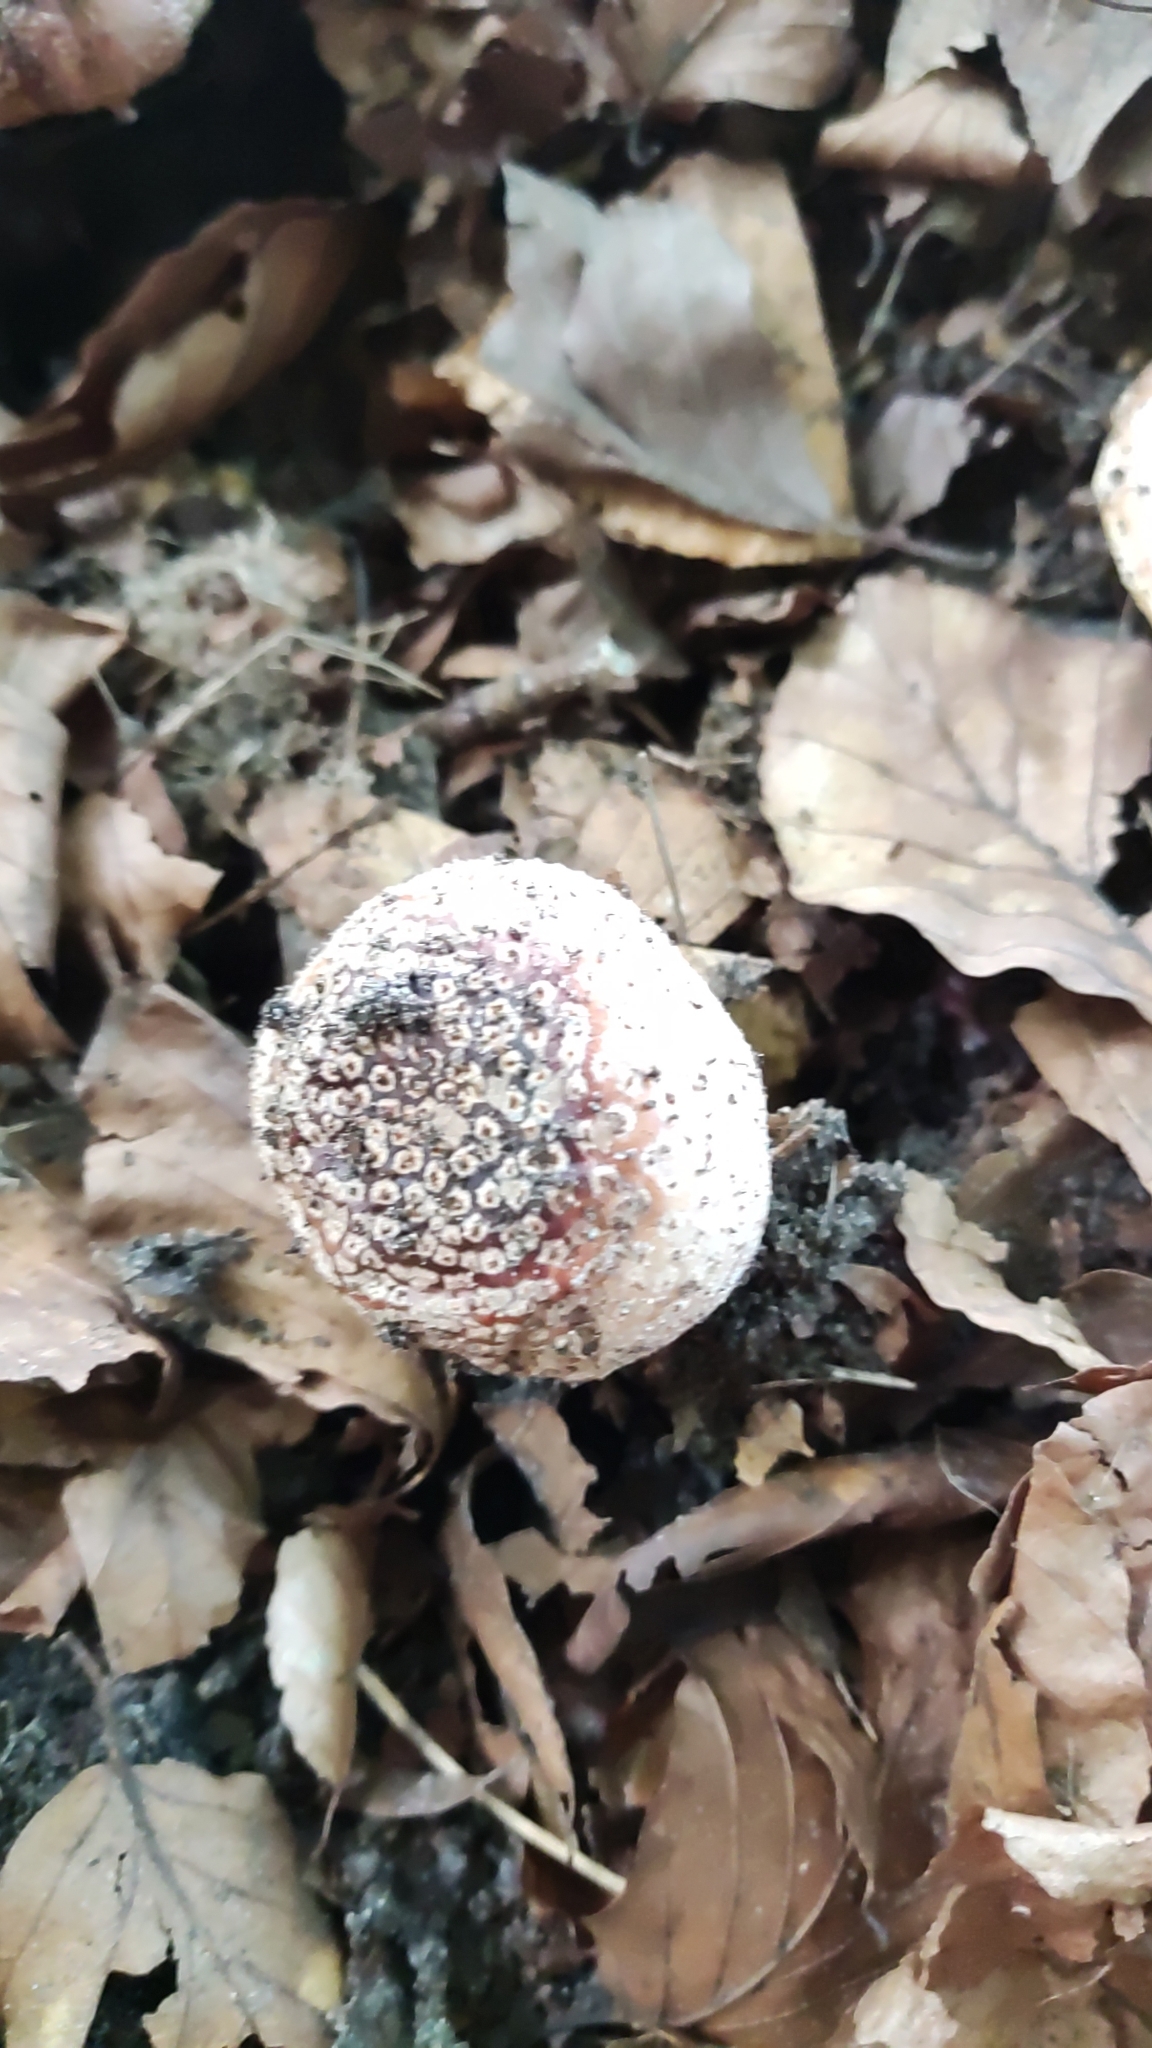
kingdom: Fungi
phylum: Basidiomycota
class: Agaricomycetes
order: Agaricales
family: Amanitaceae
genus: Amanita
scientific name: Amanita rubescens
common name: Blusher
